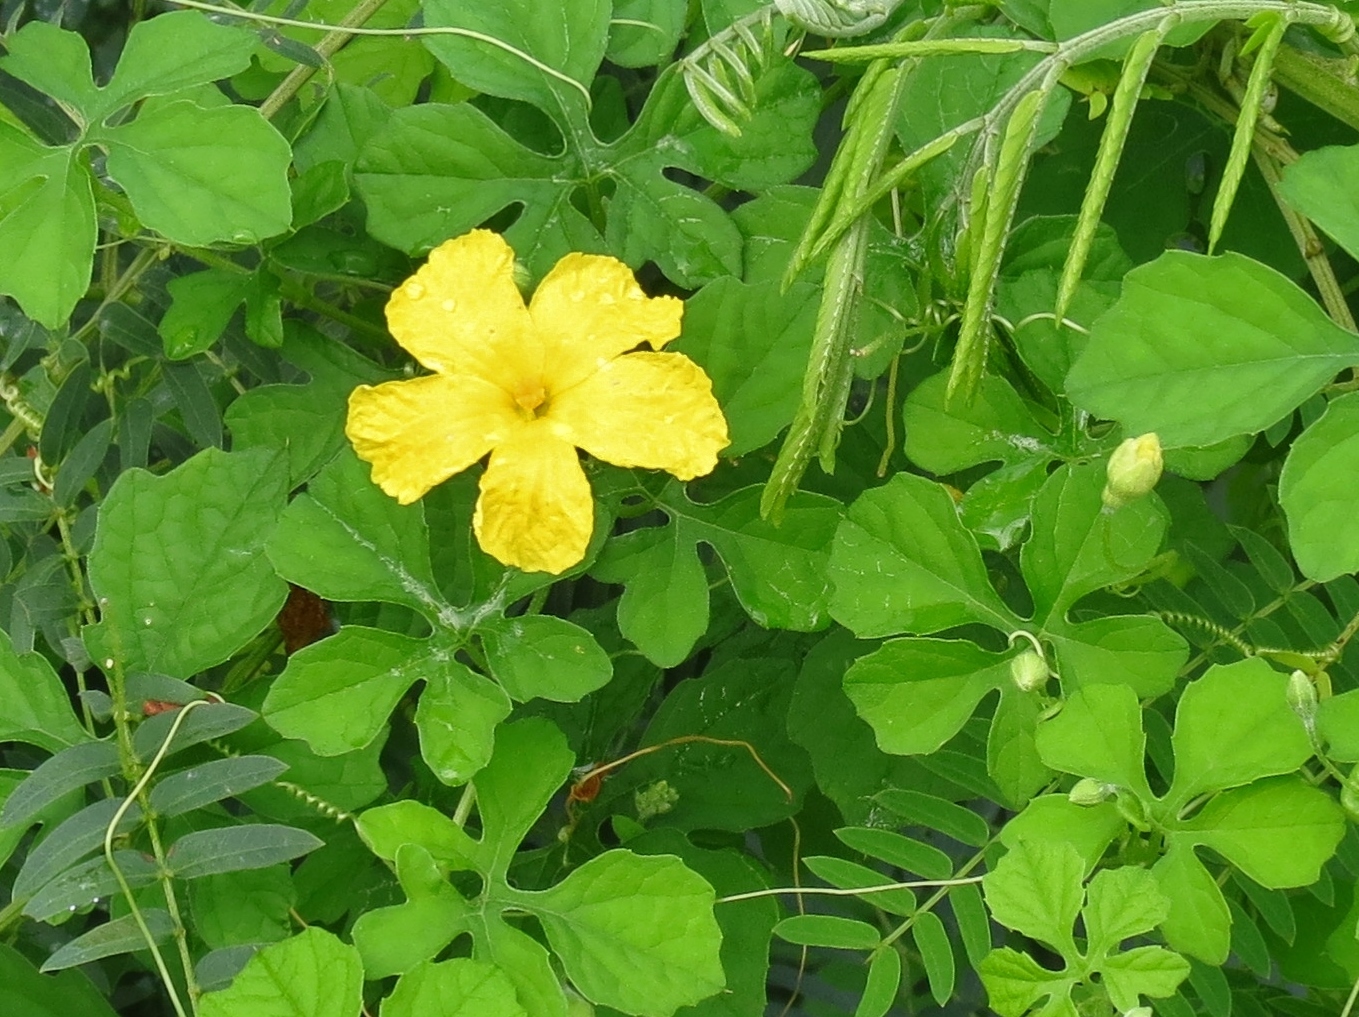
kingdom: Plantae
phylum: Tracheophyta
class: Magnoliopsida
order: Cucurbitales
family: Cucurbitaceae
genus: Momordica
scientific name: Momordica charantia
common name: Balsampear
